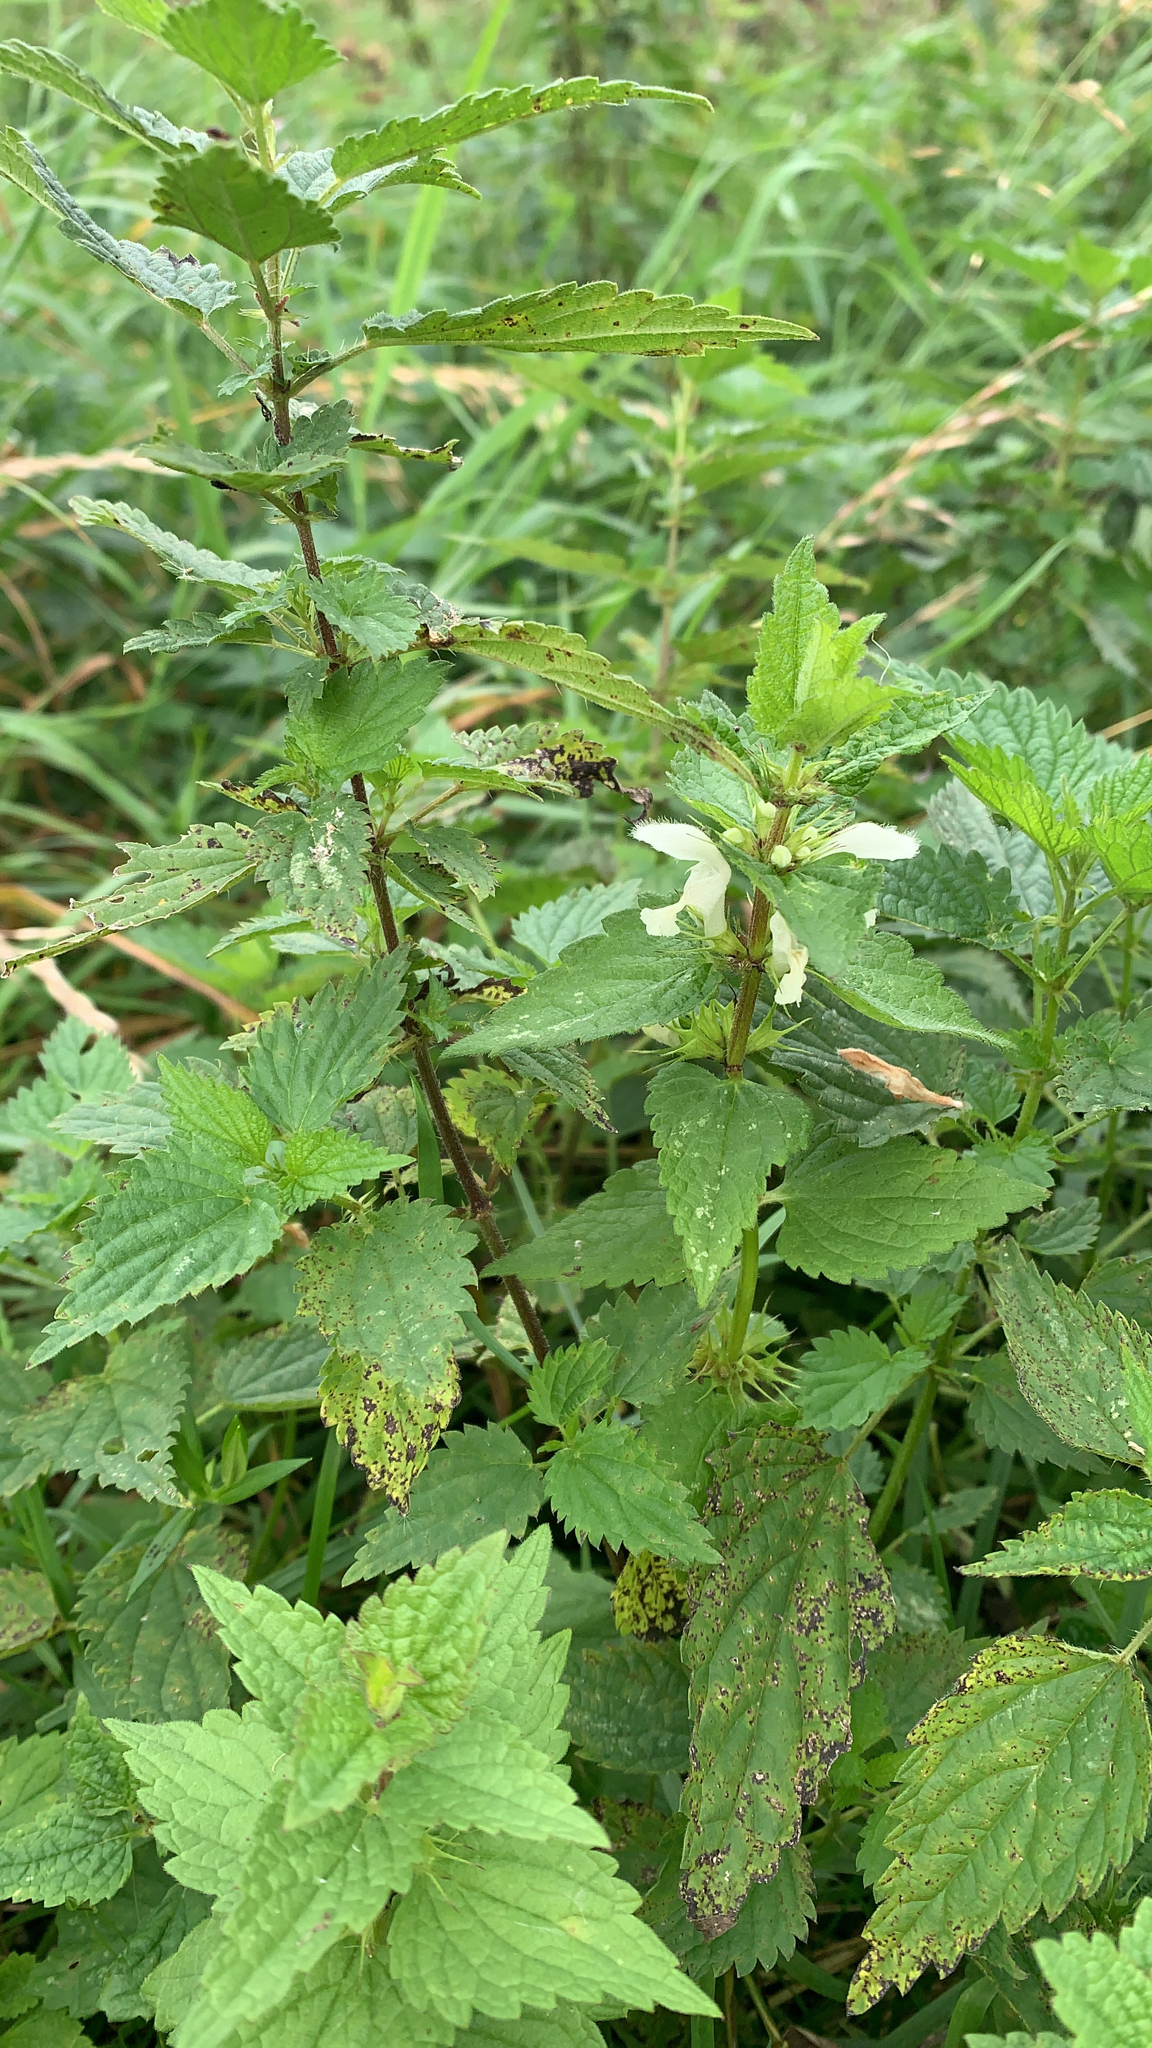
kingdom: Plantae
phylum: Tracheophyta
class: Magnoliopsida
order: Lamiales
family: Lamiaceae
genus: Lamium
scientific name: Lamium album
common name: White dead-nettle
